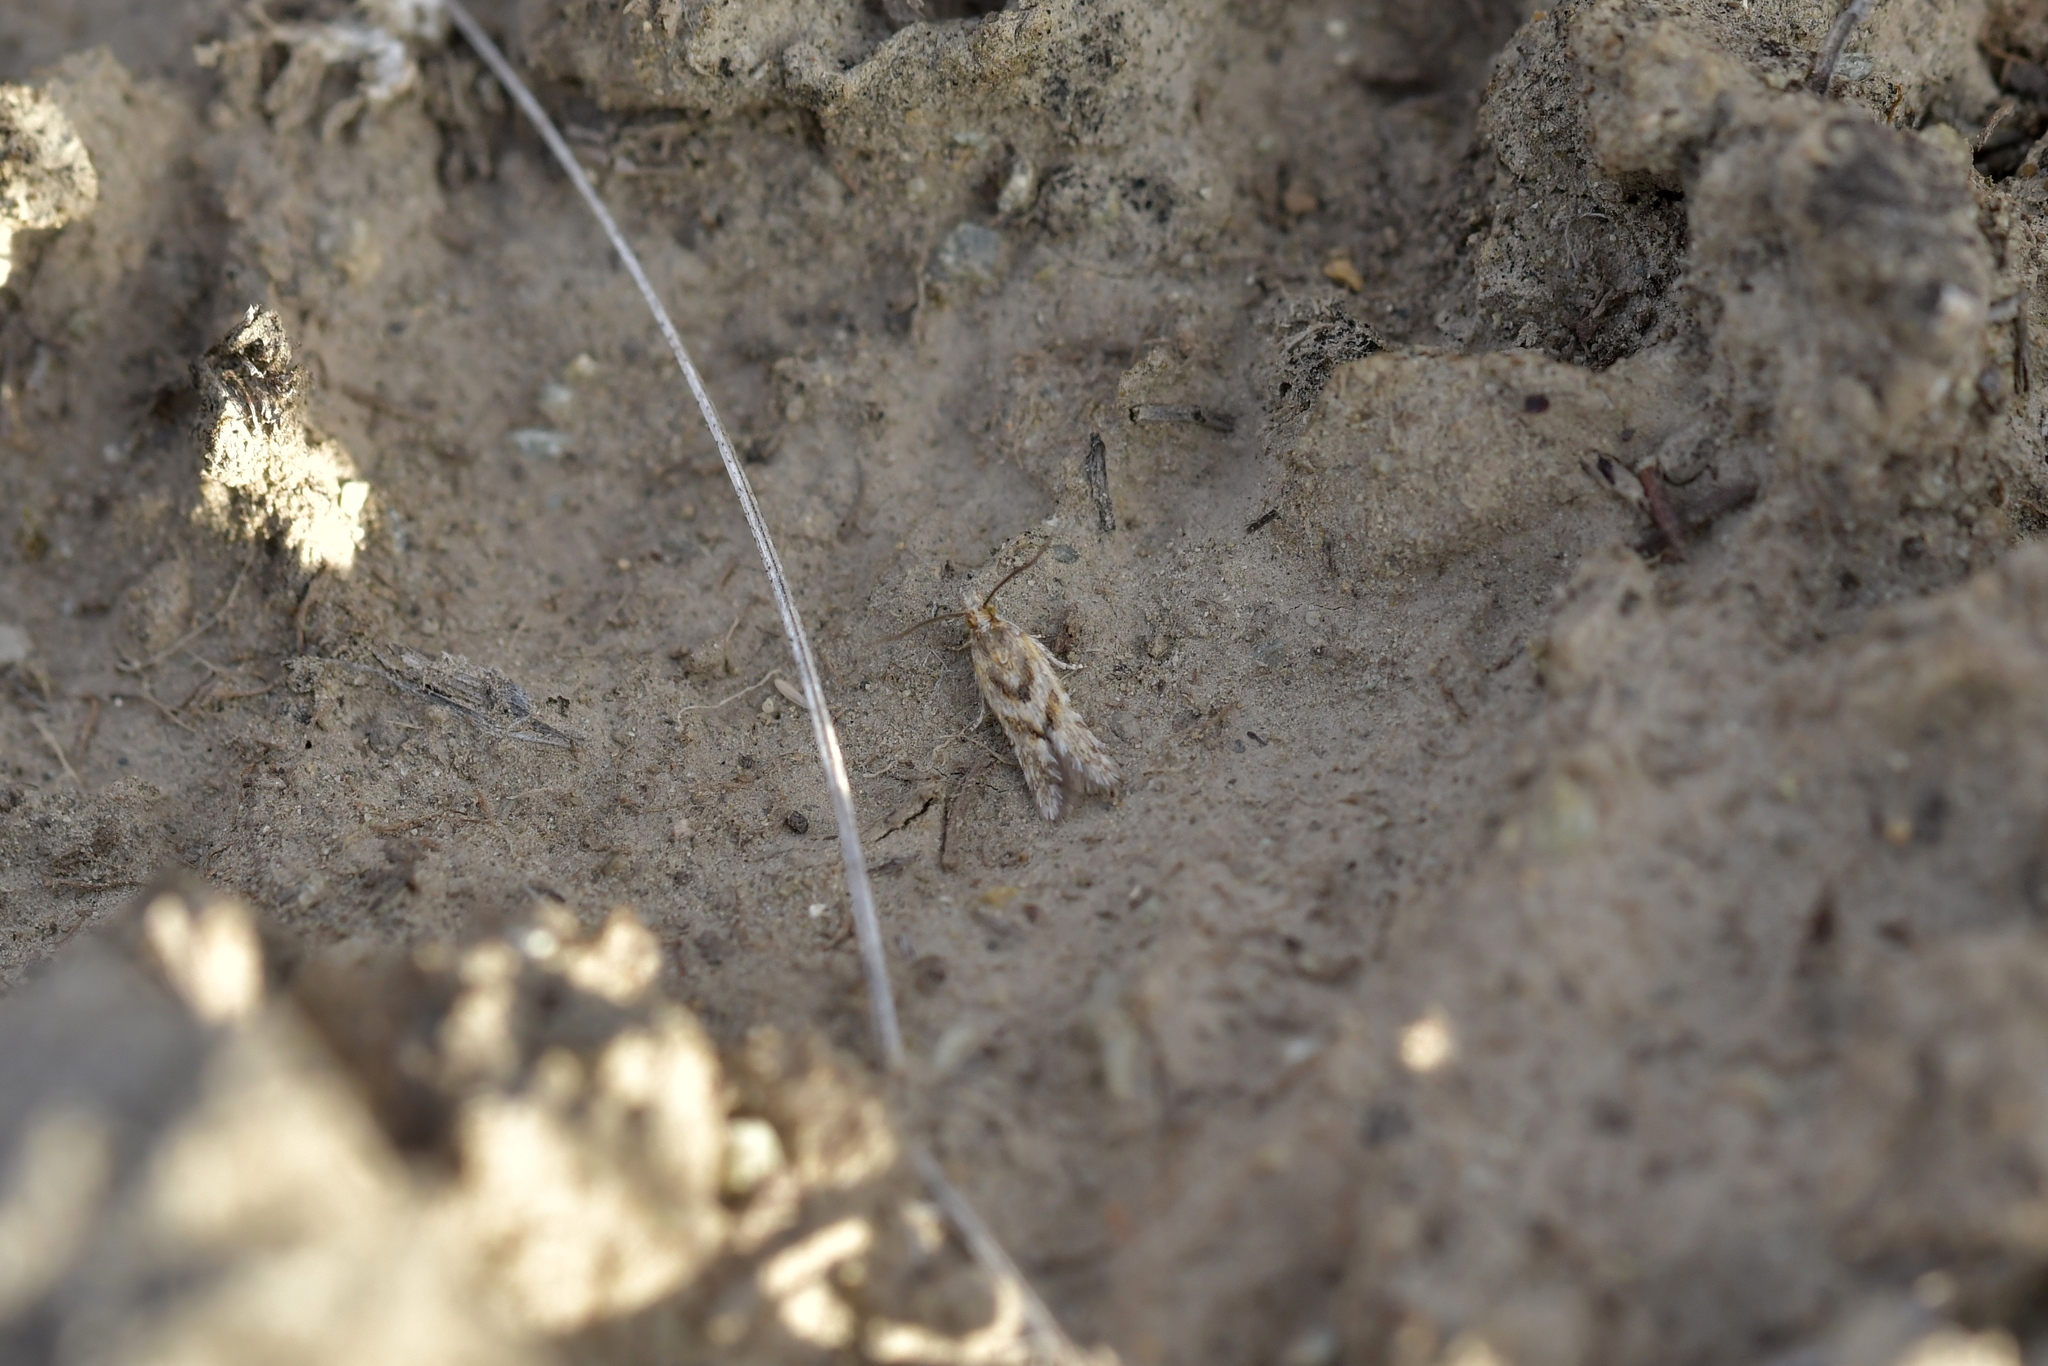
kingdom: Animalia
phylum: Arthropoda
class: Insecta
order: Lepidoptera
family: Tortricidae
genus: Eurythecta
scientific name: Eurythecta zelaea
